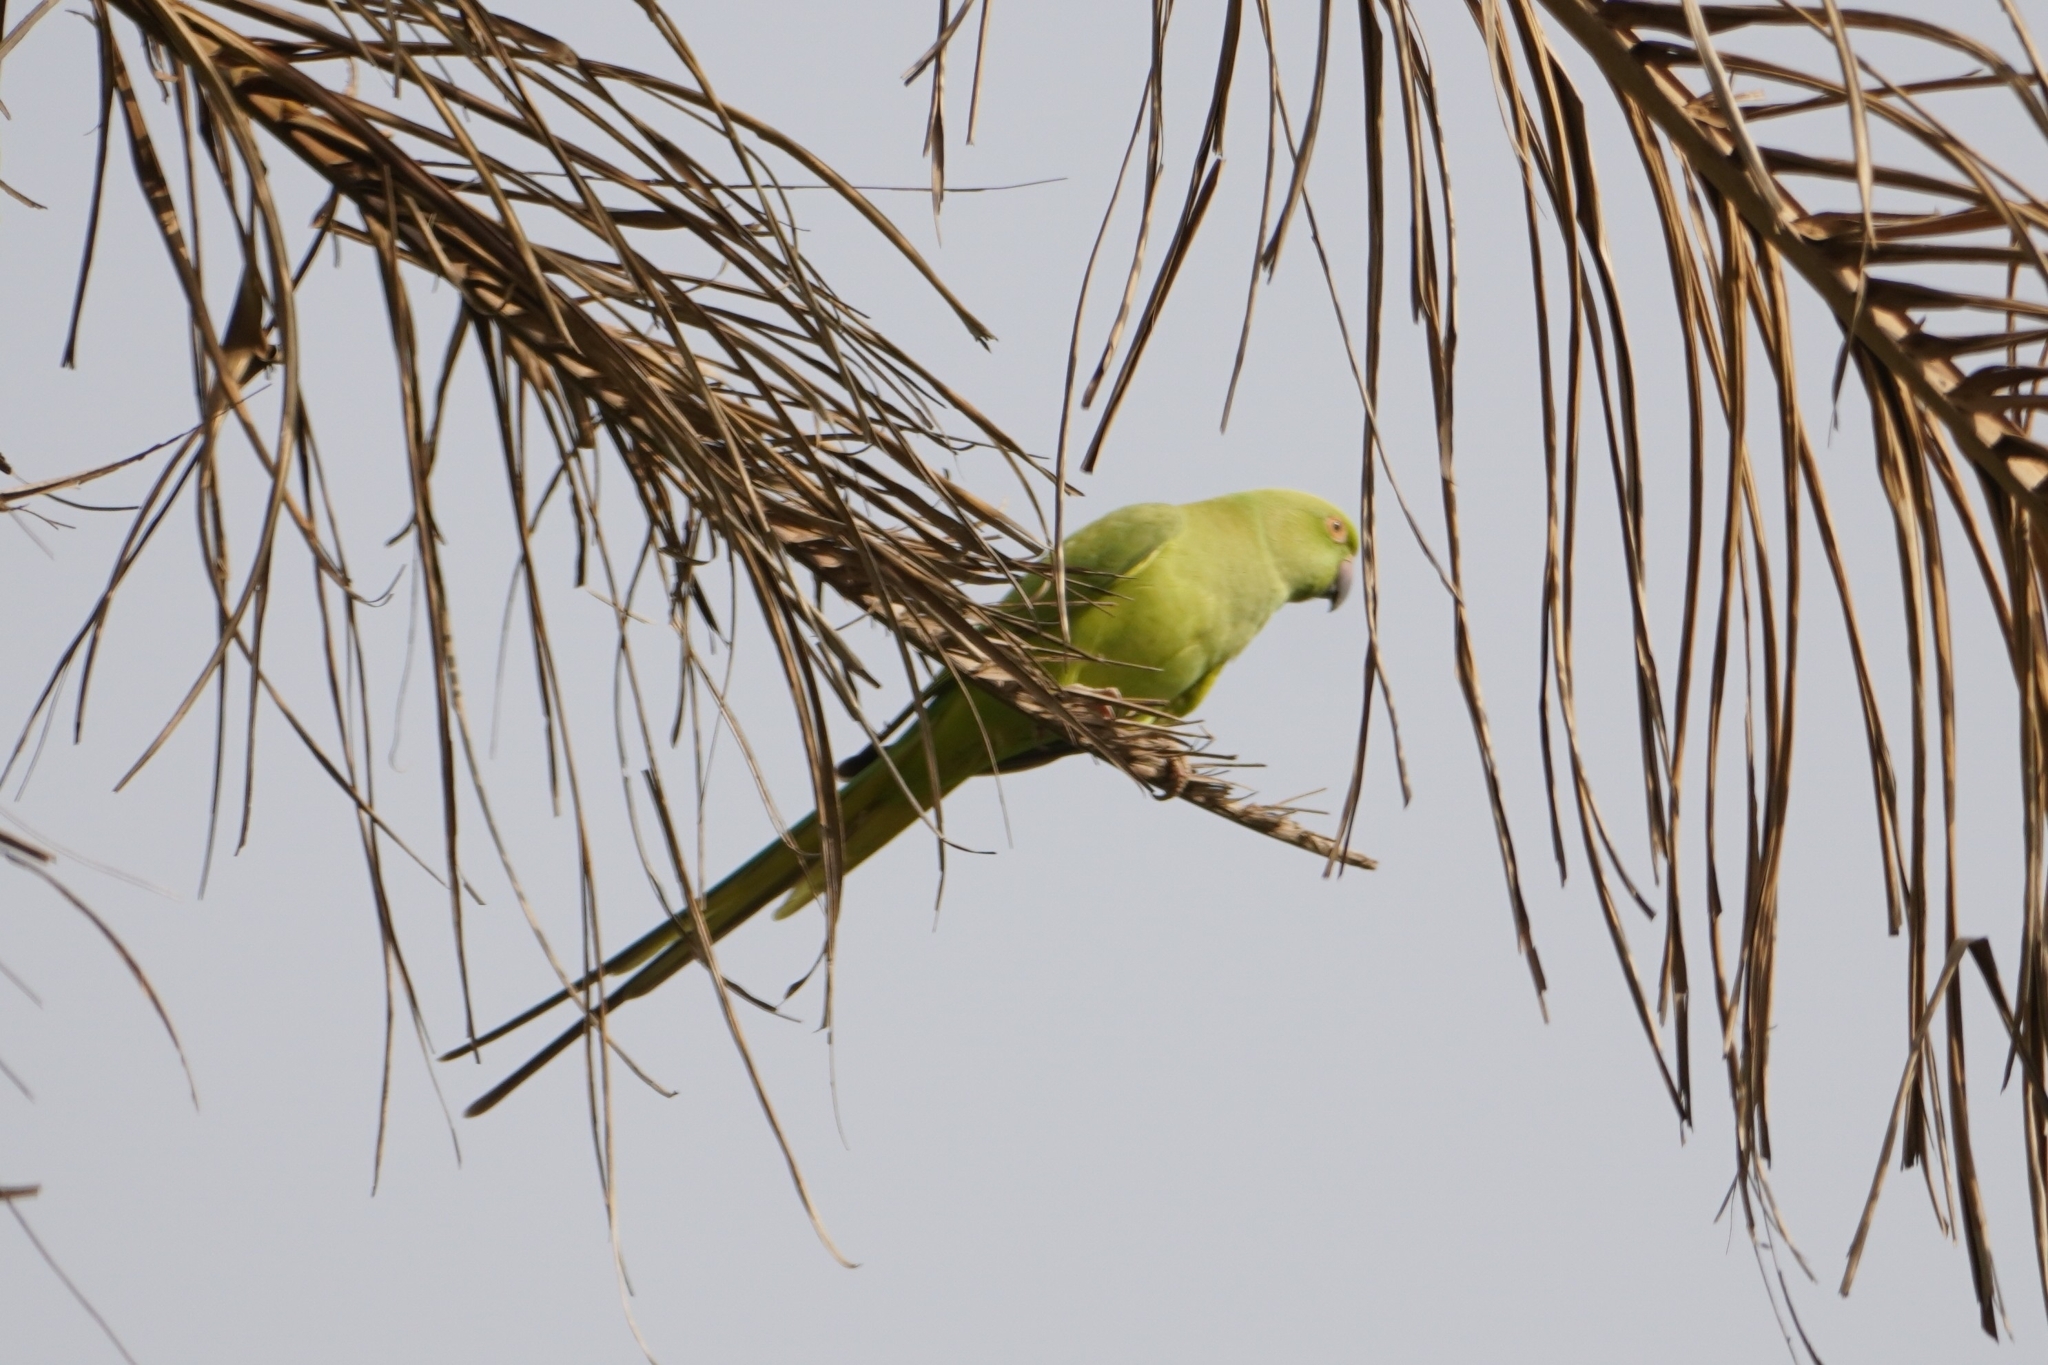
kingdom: Animalia
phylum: Chordata
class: Aves
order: Psittaciformes
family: Psittacidae
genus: Psittacula
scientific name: Psittacula krameri
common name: Rose-ringed parakeet
